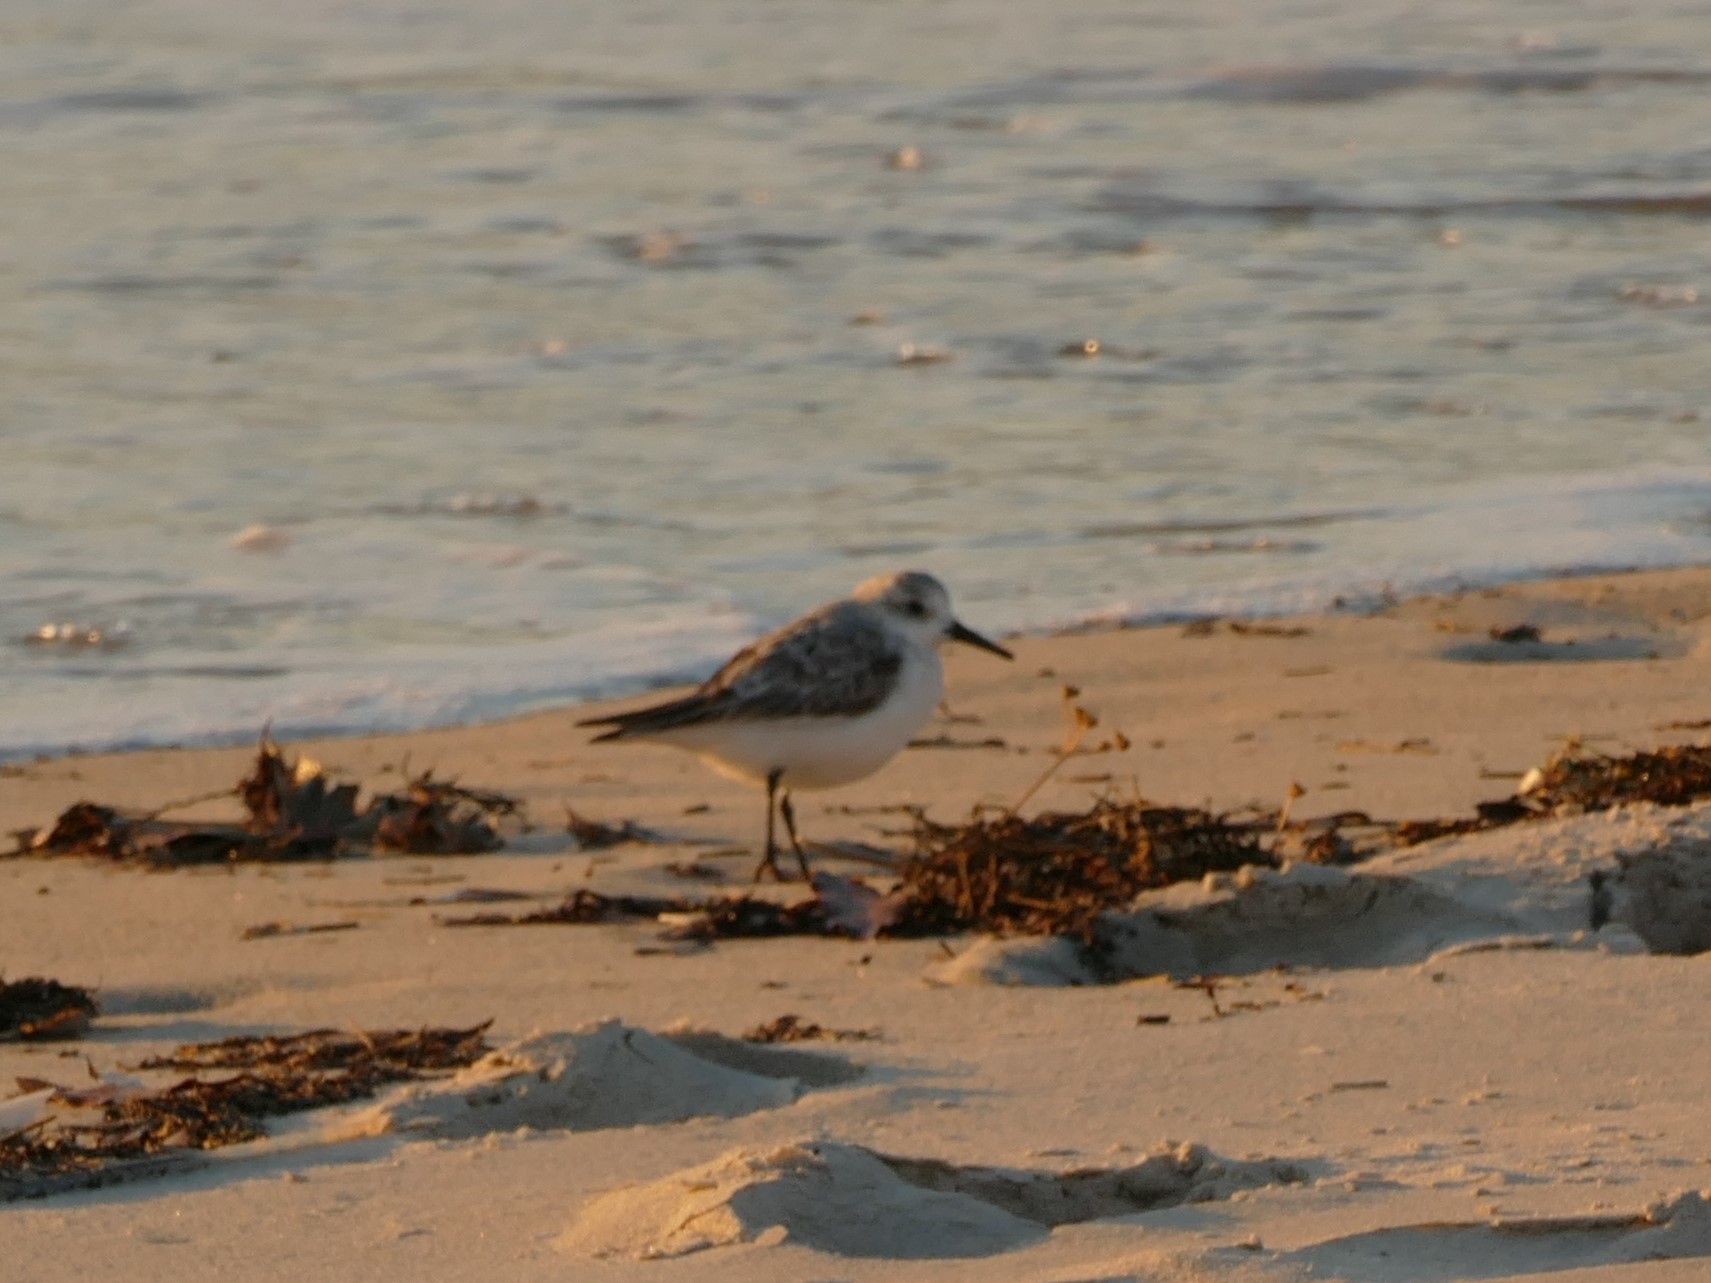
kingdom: Animalia
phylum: Chordata
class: Aves
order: Charadriiformes
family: Scolopacidae
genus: Calidris
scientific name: Calidris alba
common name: Sanderling
